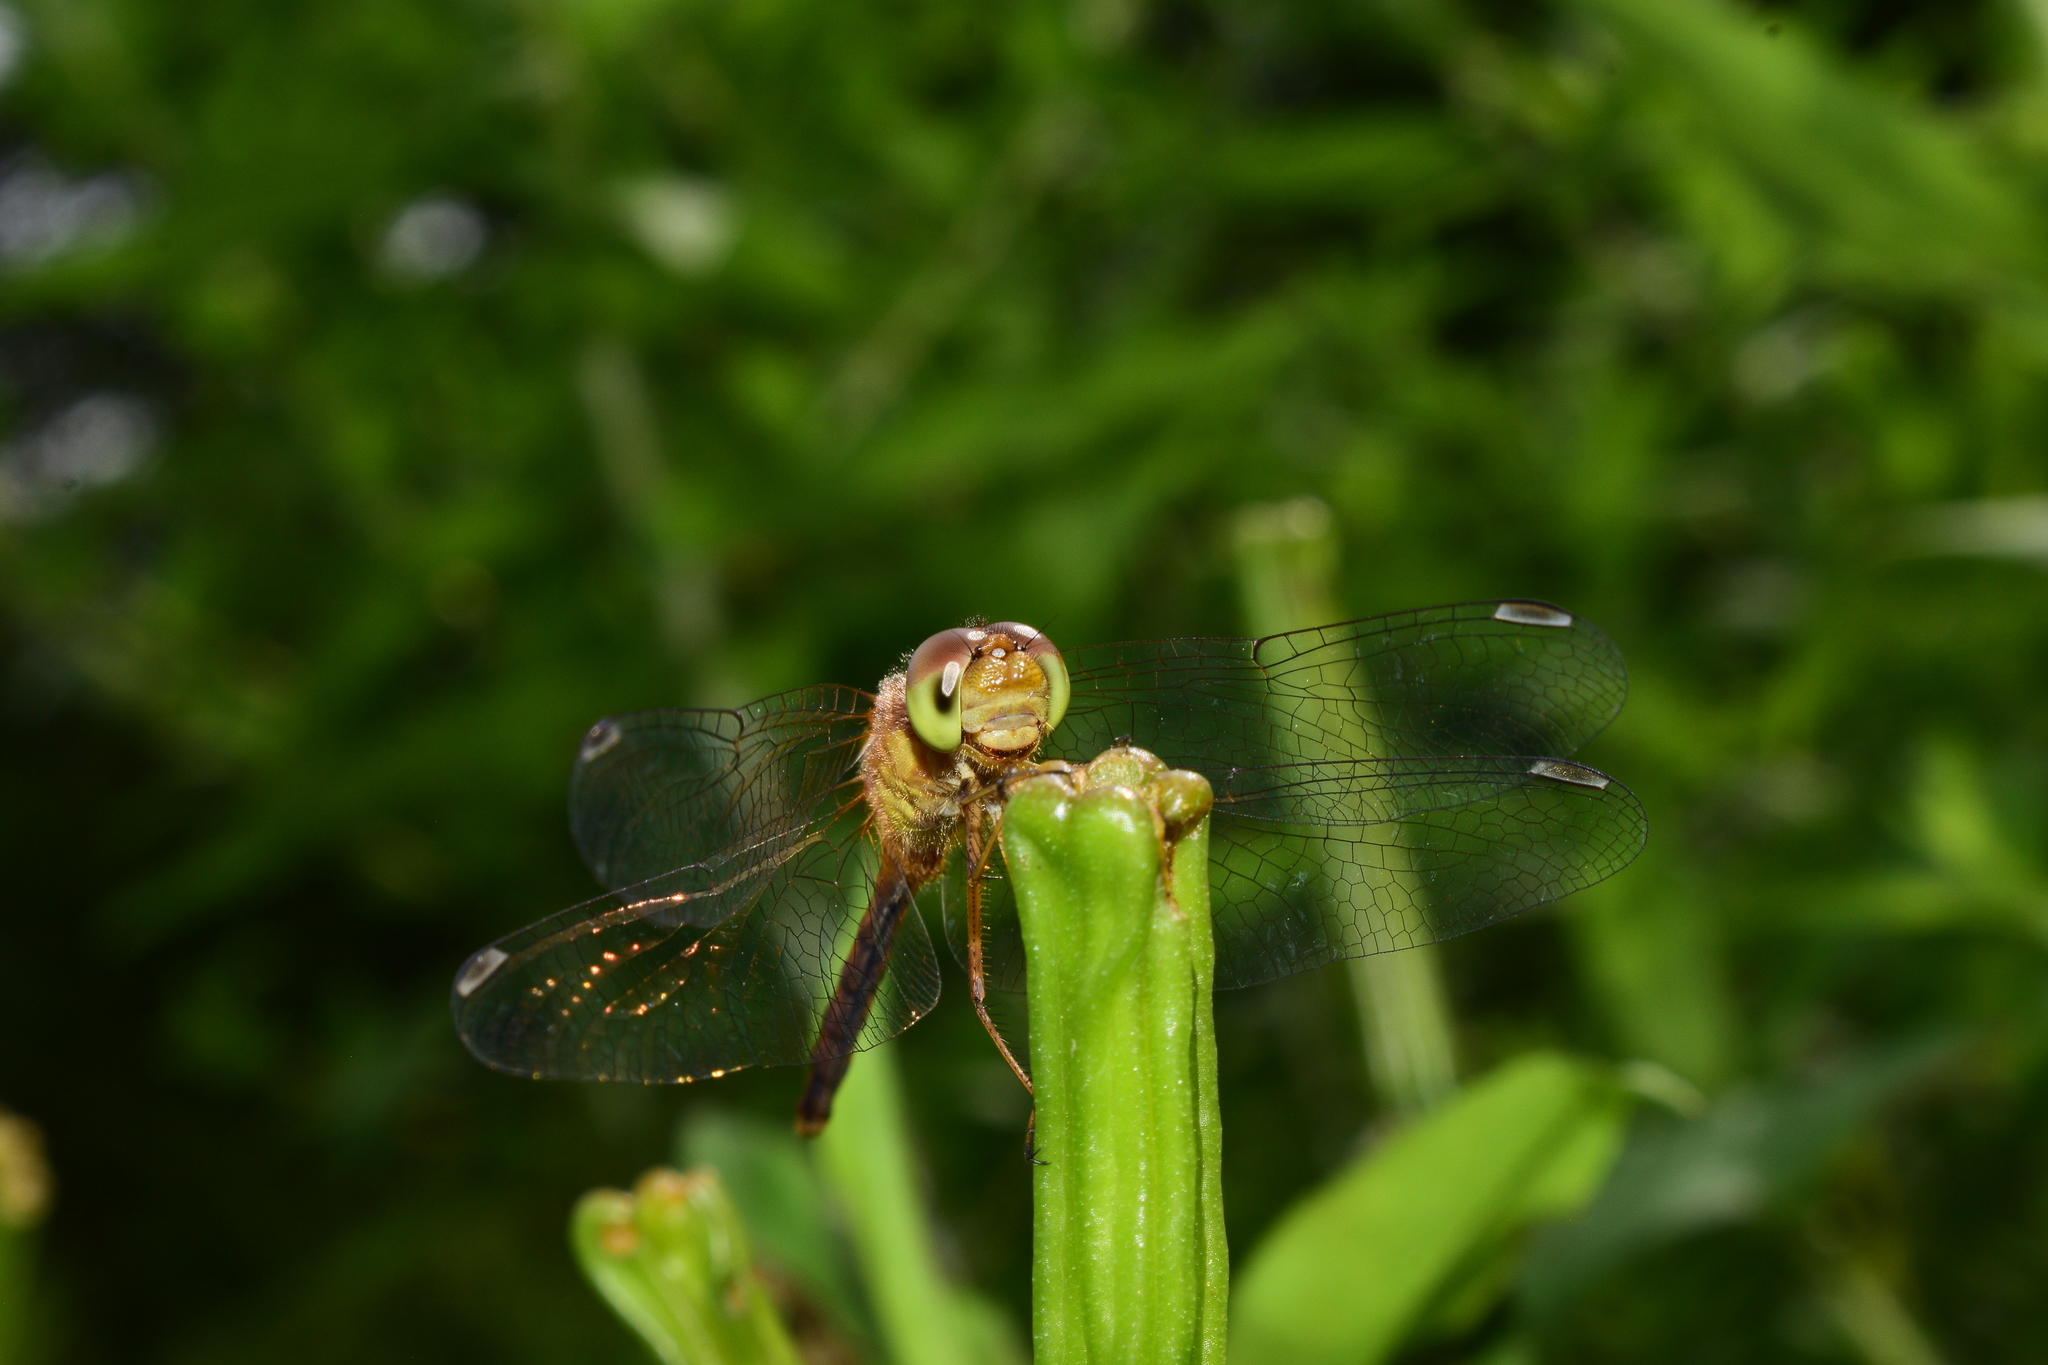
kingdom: Animalia
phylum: Arthropoda
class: Insecta
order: Odonata
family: Libellulidae
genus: Sympetrum
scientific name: Sympetrum vicinum
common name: Autumn meadowhawk
